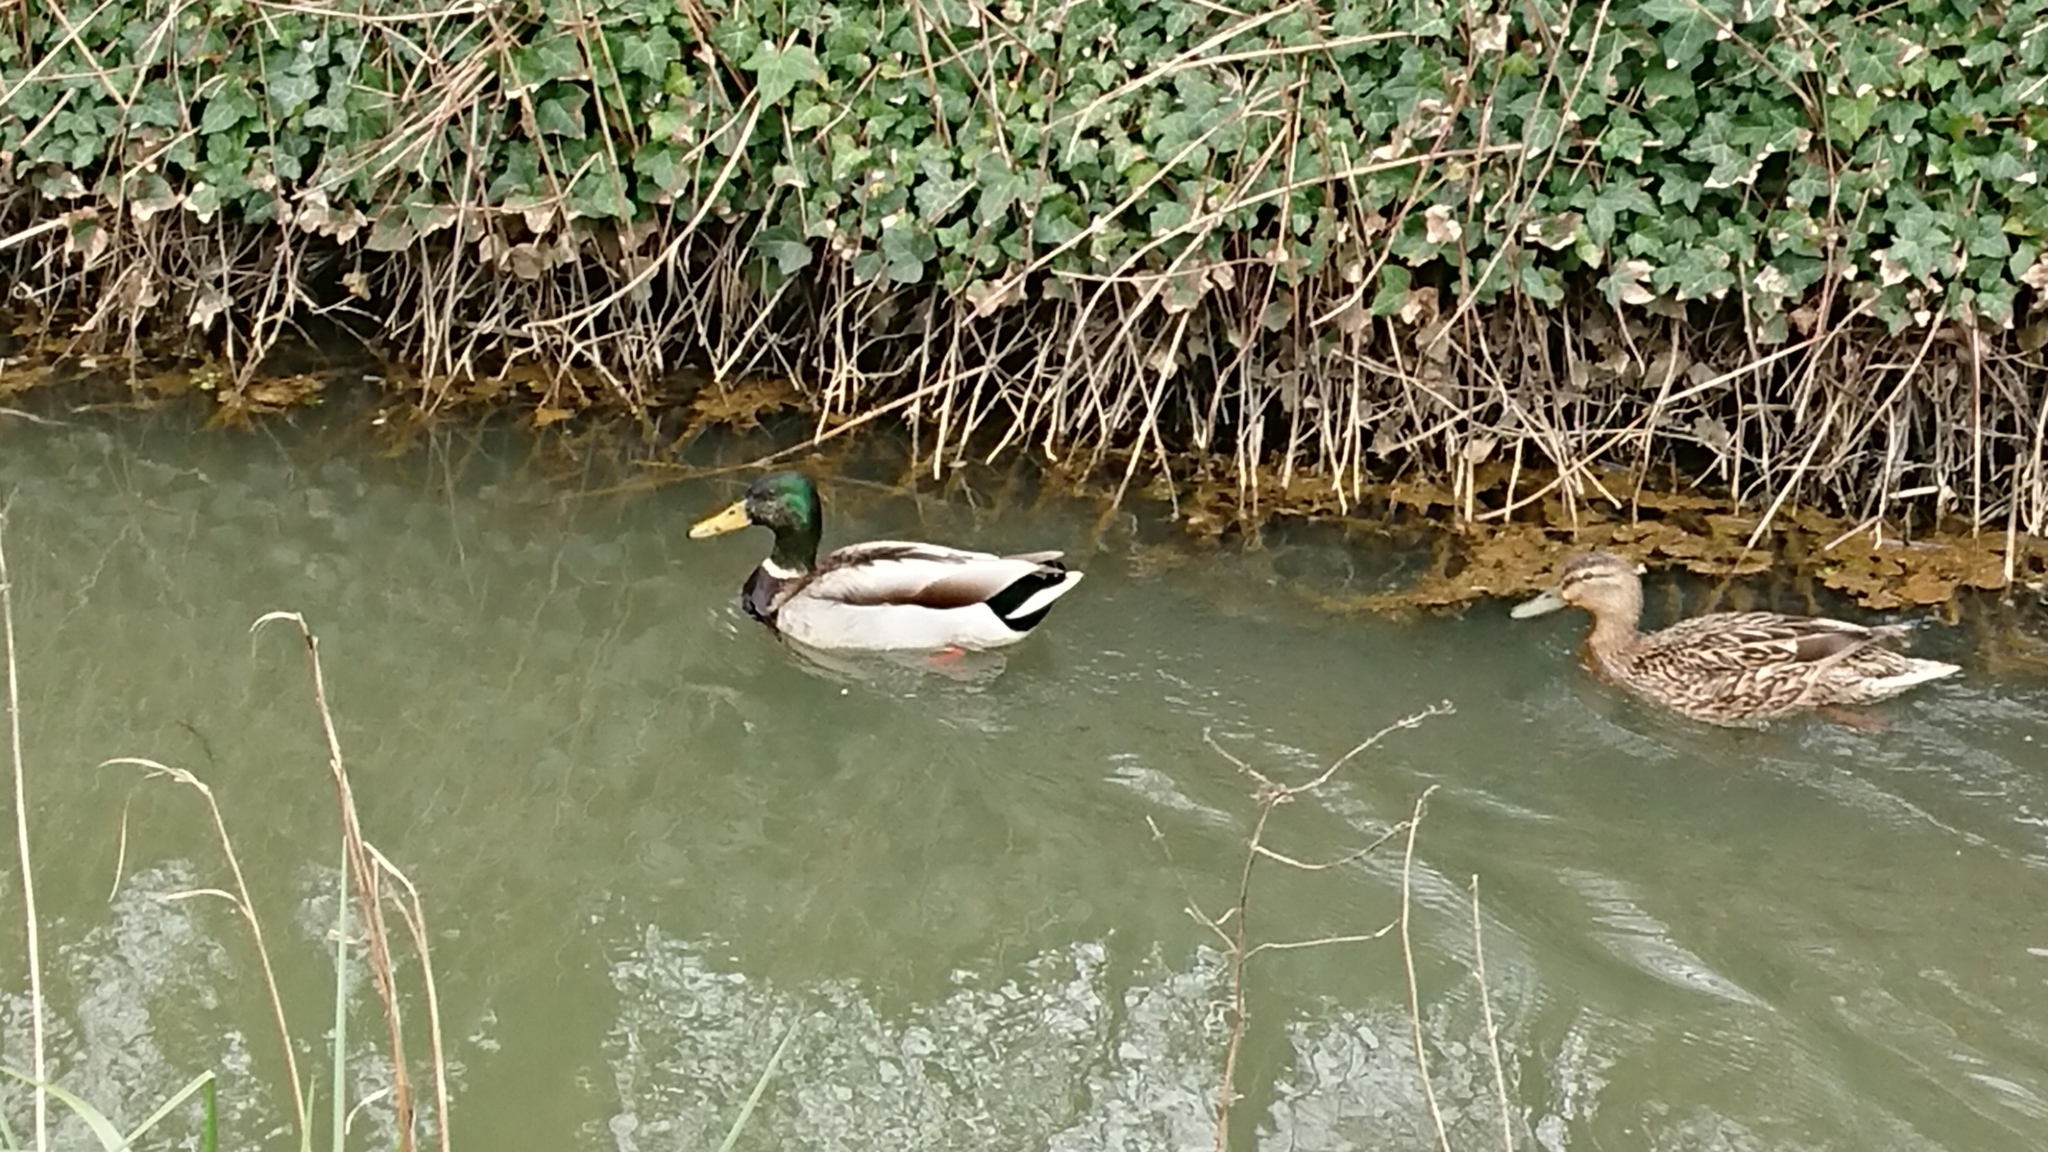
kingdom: Animalia
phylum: Chordata
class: Aves
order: Anseriformes
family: Anatidae
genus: Anas
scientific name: Anas platyrhynchos
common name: Mallard
